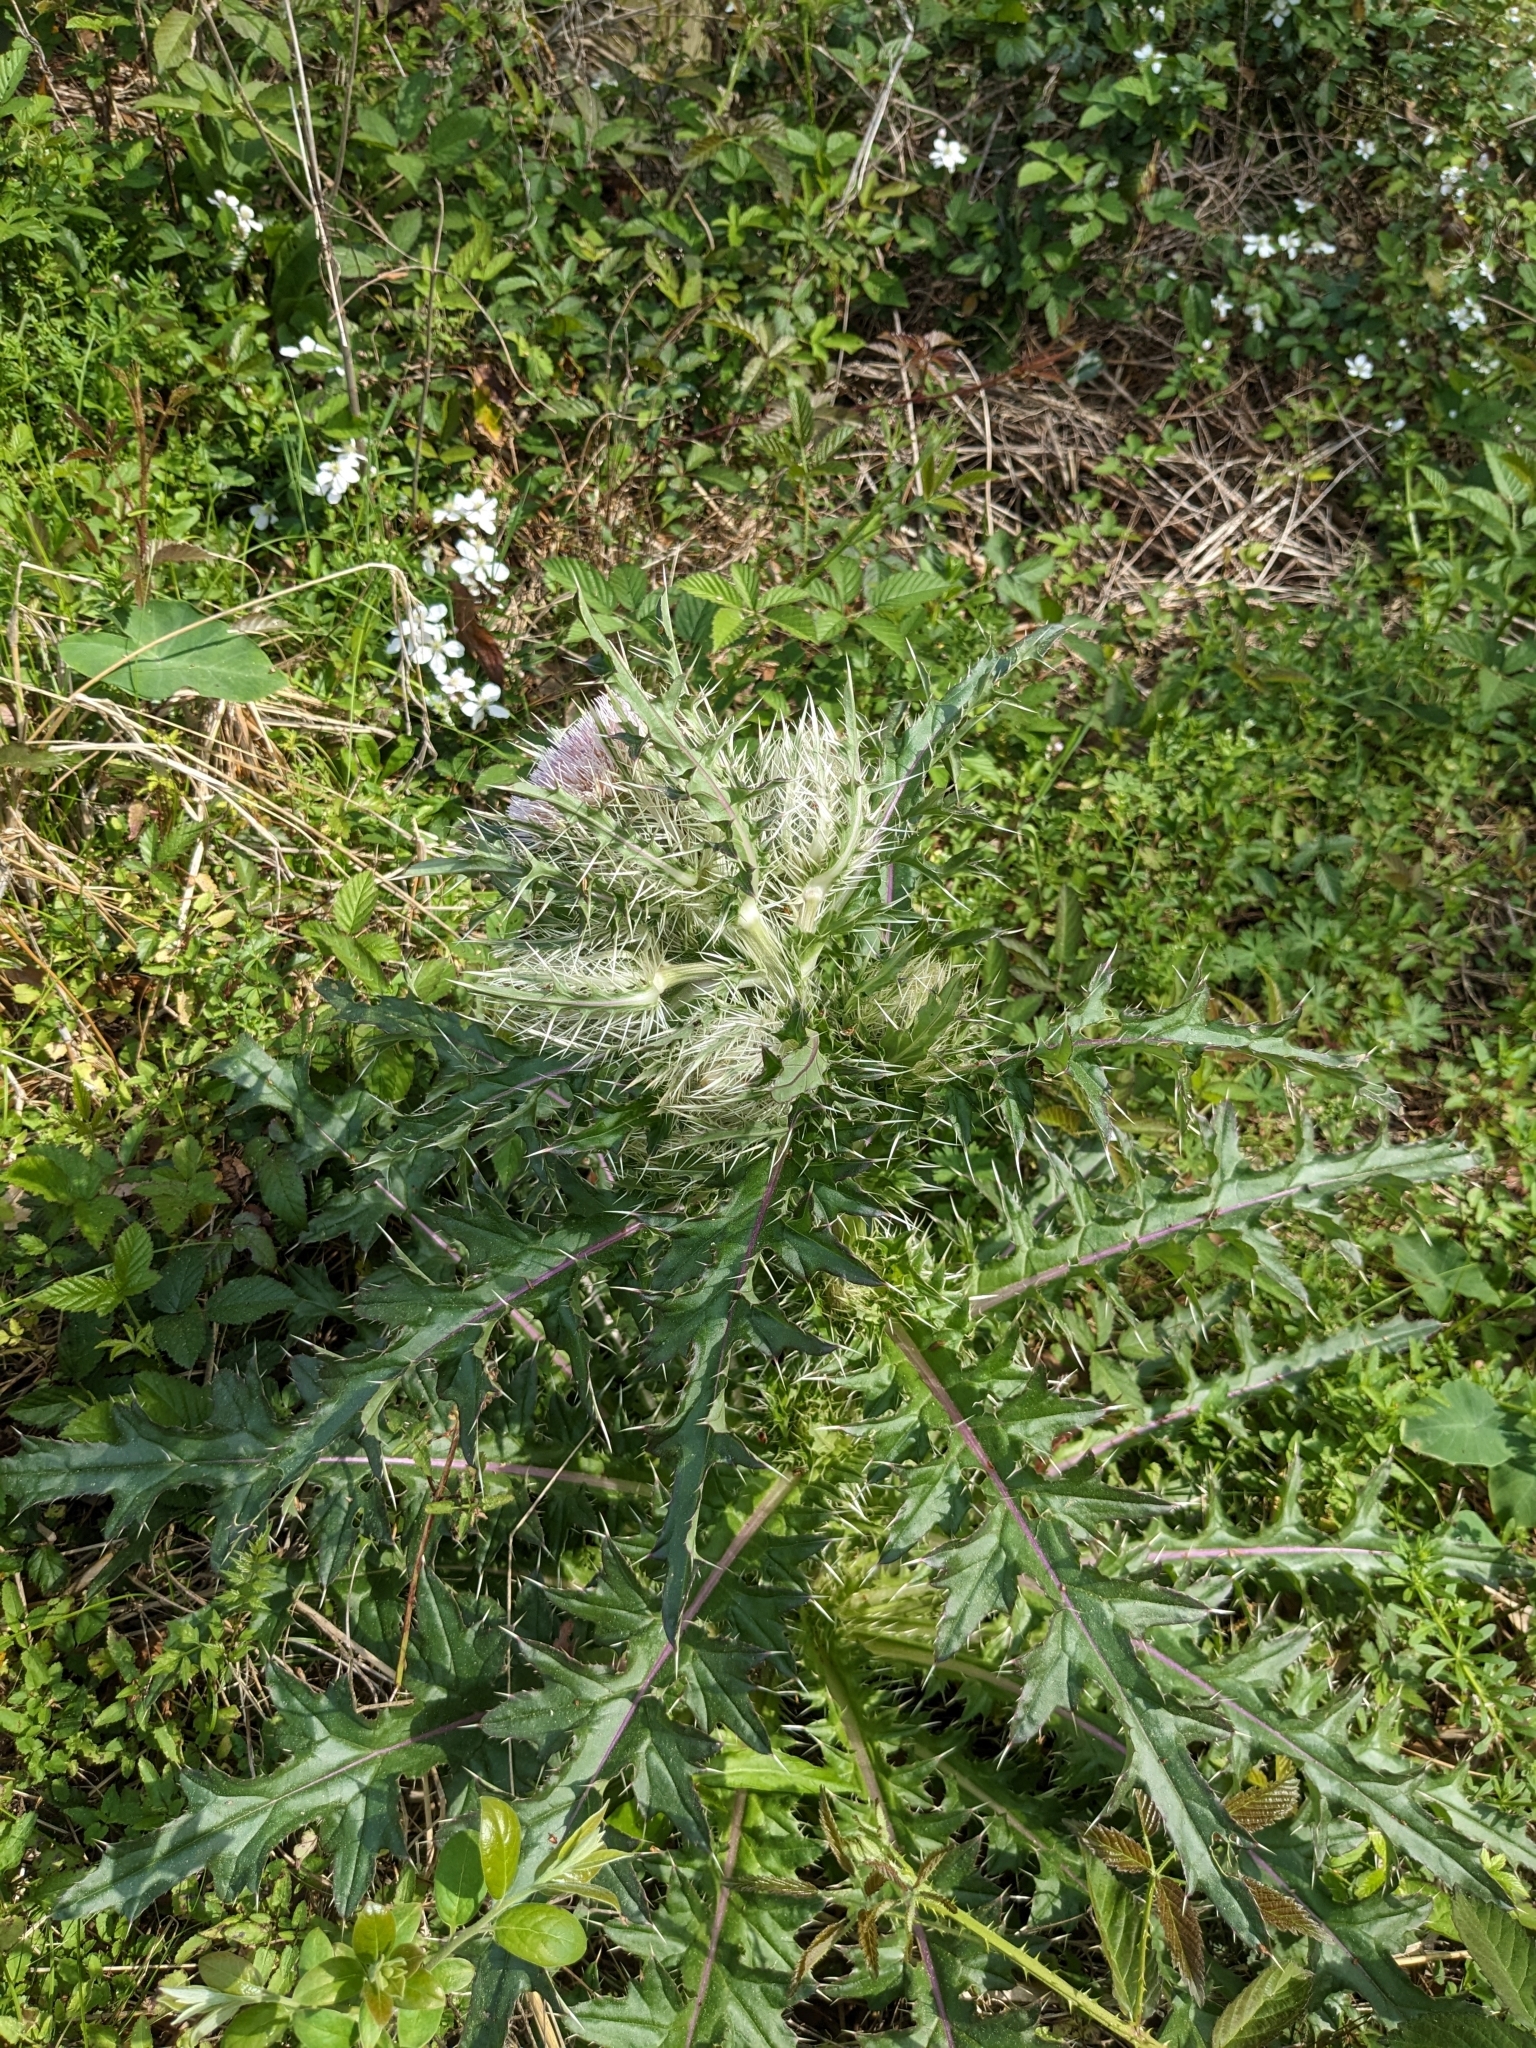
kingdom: Plantae
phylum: Tracheophyta
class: Magnoliopsida
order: Asterales
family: Asteraceae
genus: Cirsium
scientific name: Cirsium horridulum
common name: Bristly thistle
